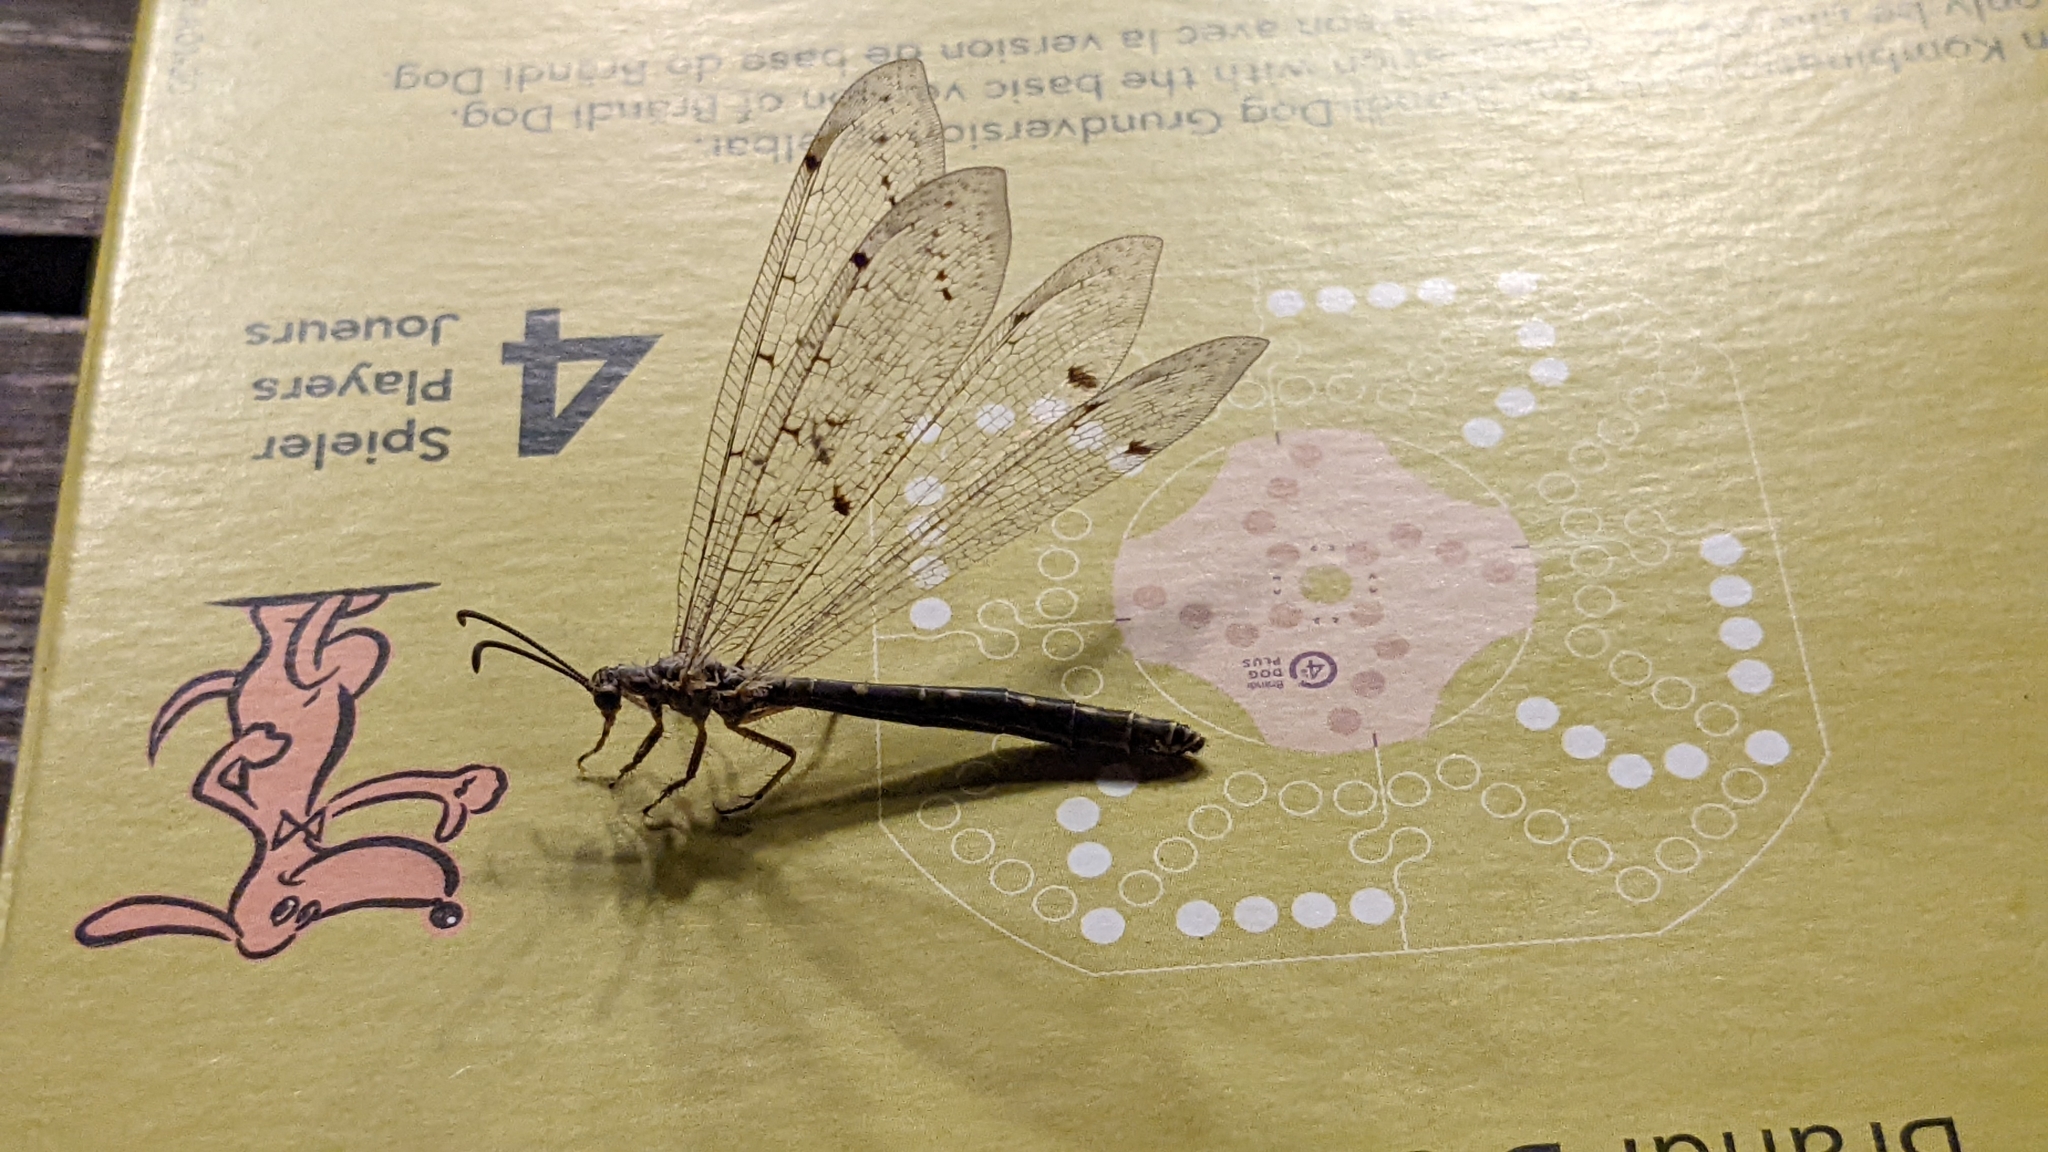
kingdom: Animalia
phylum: Arthropoda
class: Insecta
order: Neuroptera
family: Myrmeleontidae
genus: Distoleon
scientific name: Distoleon tetragrammicus
